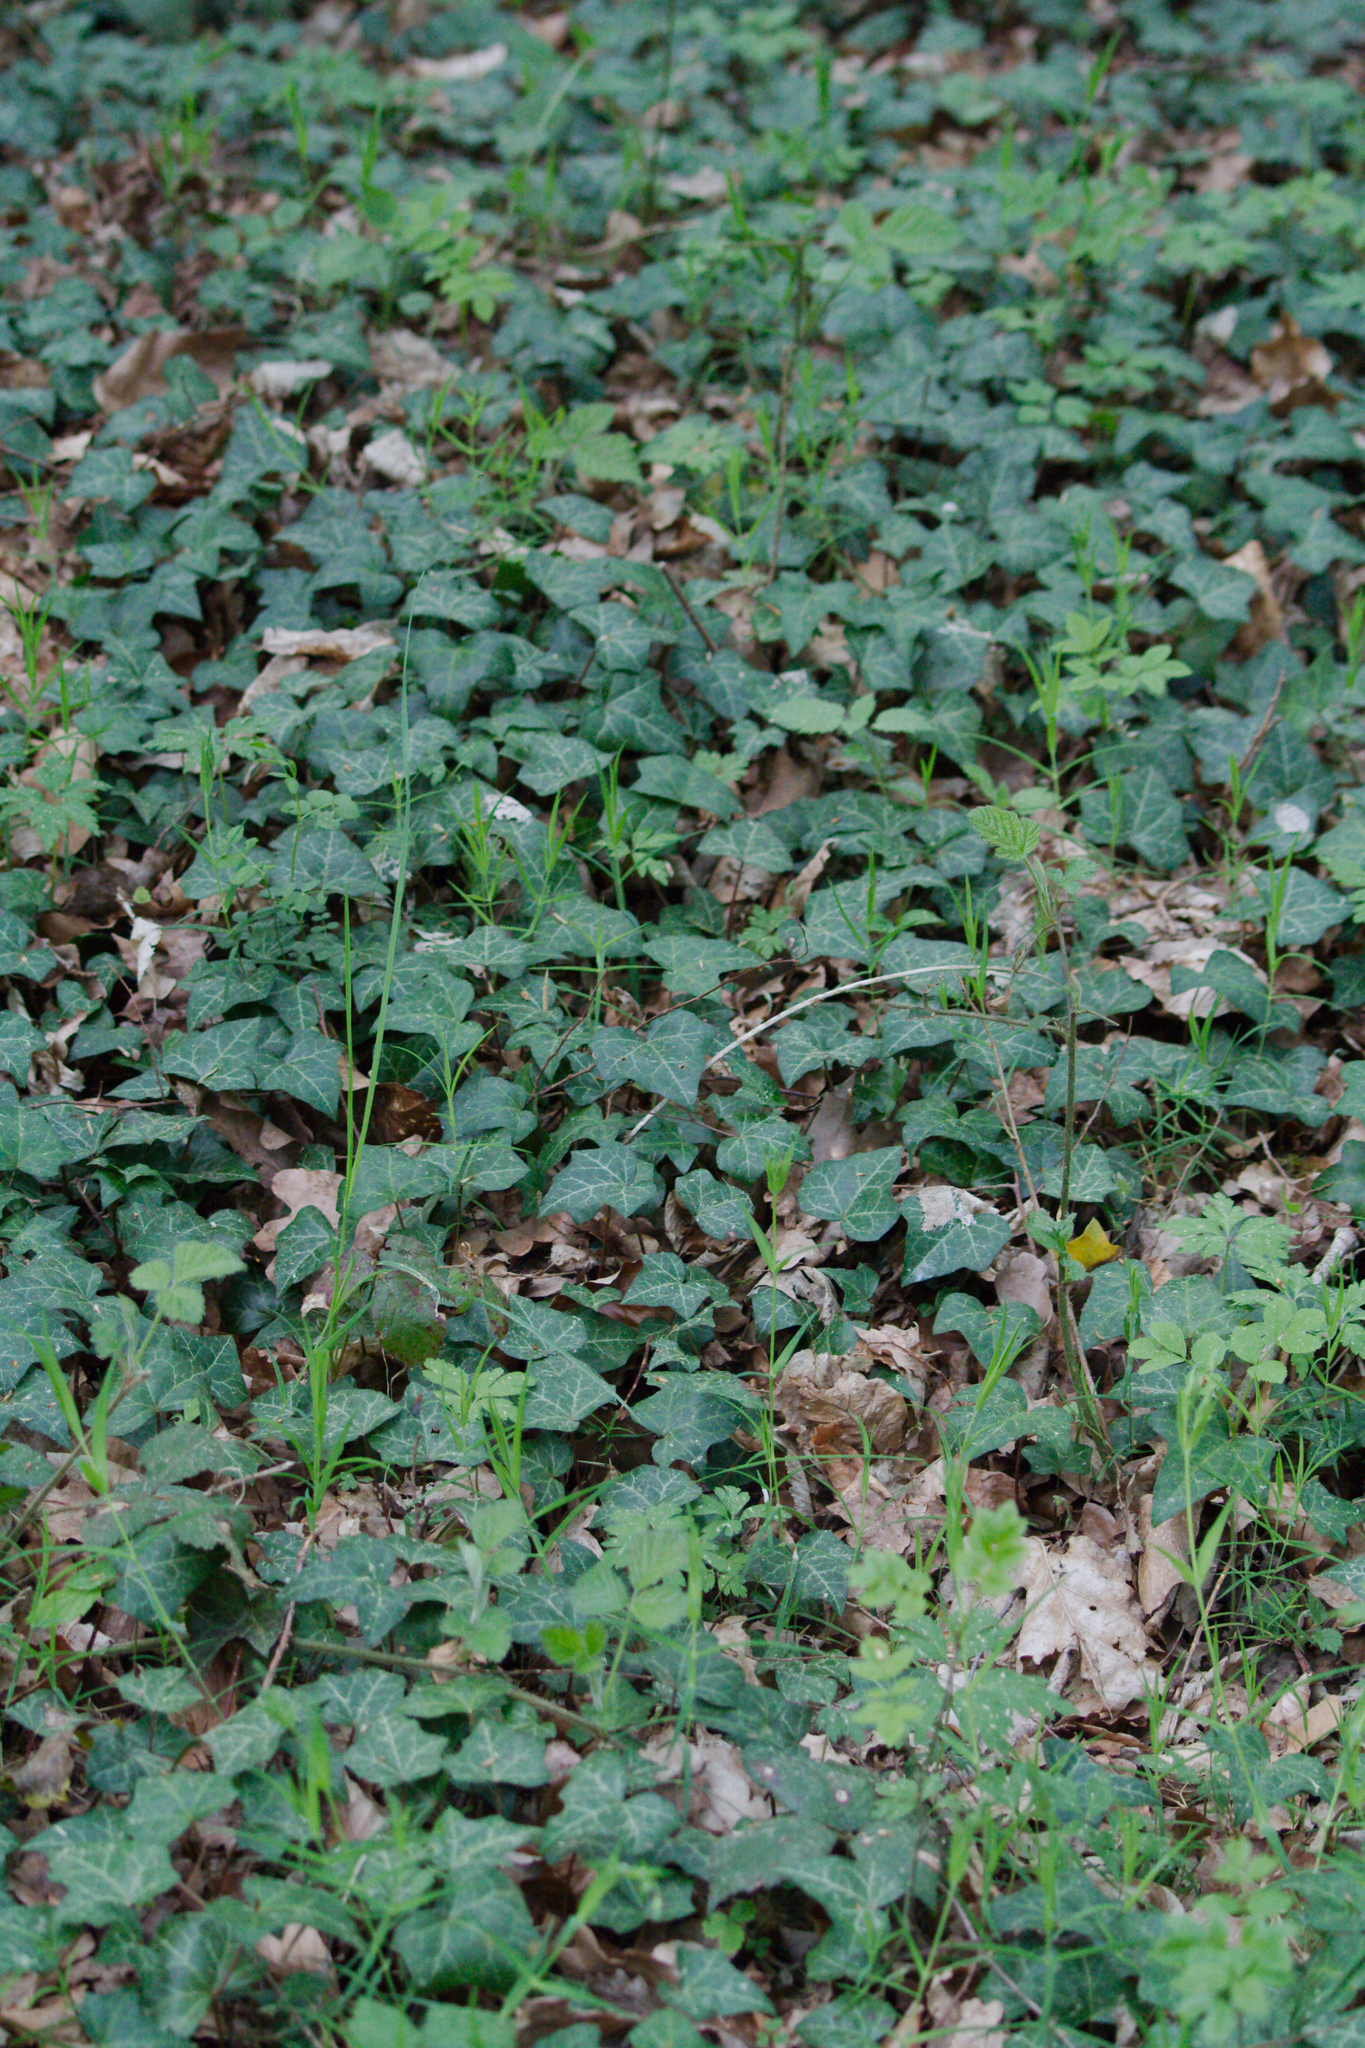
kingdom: Plantae
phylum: Tracheophyta
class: Magnoliopsida
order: Apiales
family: Araliaceae
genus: Hedera
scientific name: Hedera helix
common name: Ivy
